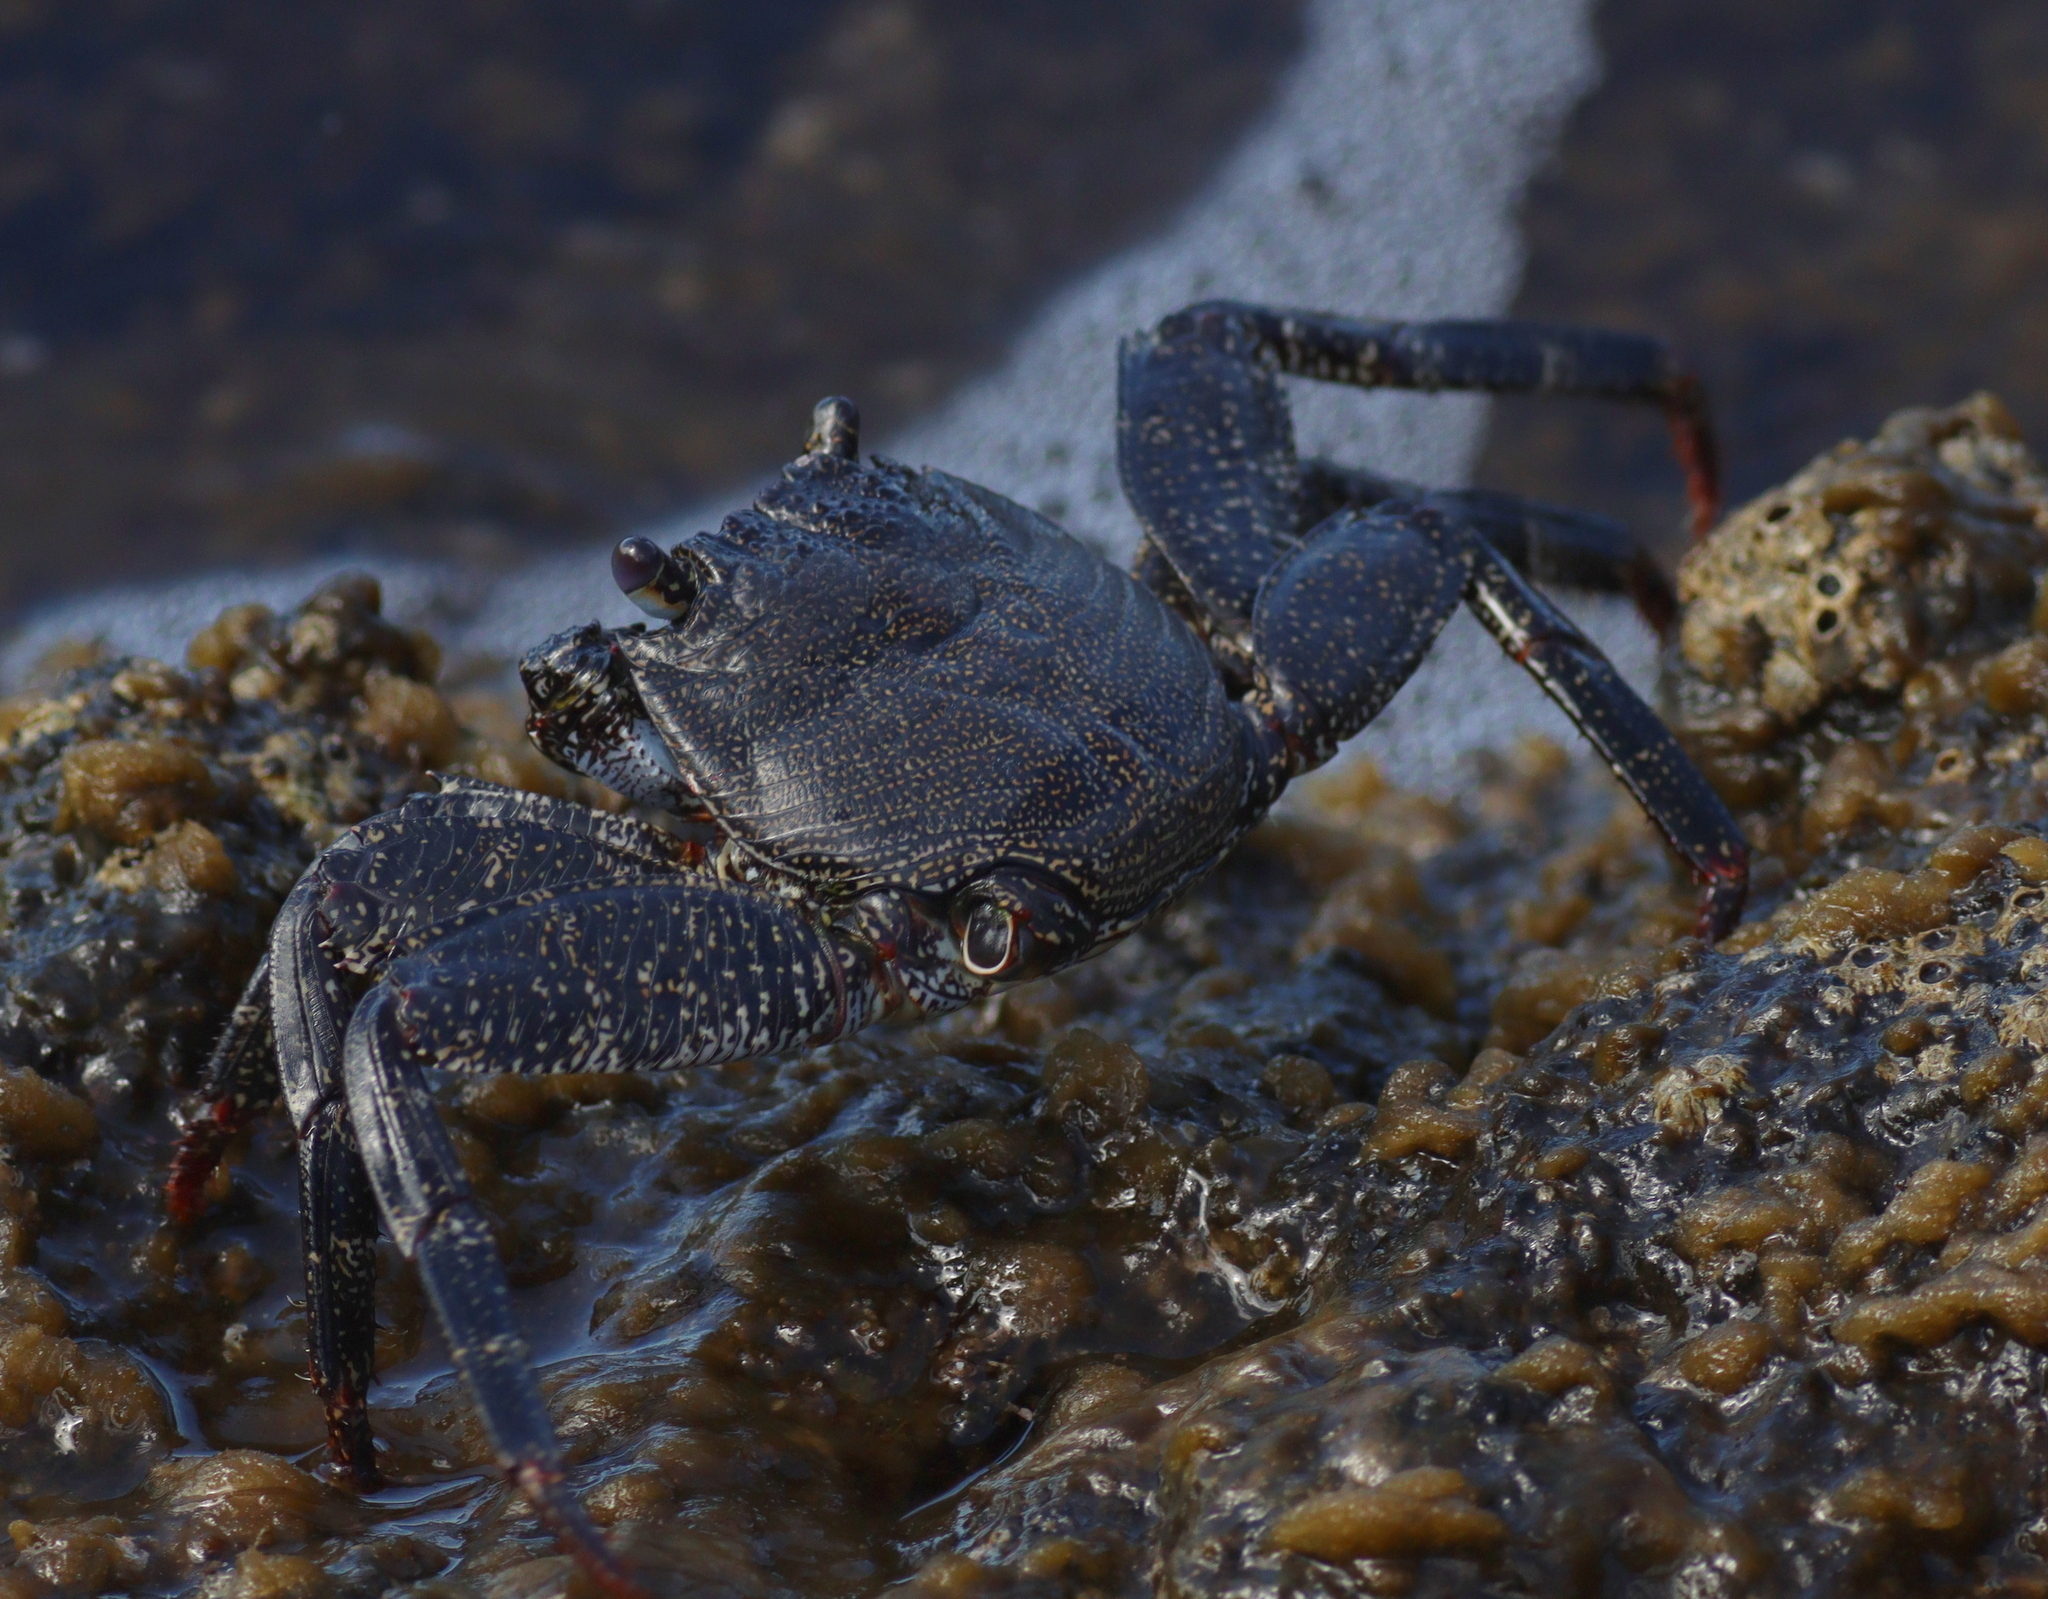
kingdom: Animalia
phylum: Arthropoda
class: Malacostraca
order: Decapoda
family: Grapsidae
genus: Grapsus
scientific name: Grapsus adscensionis
